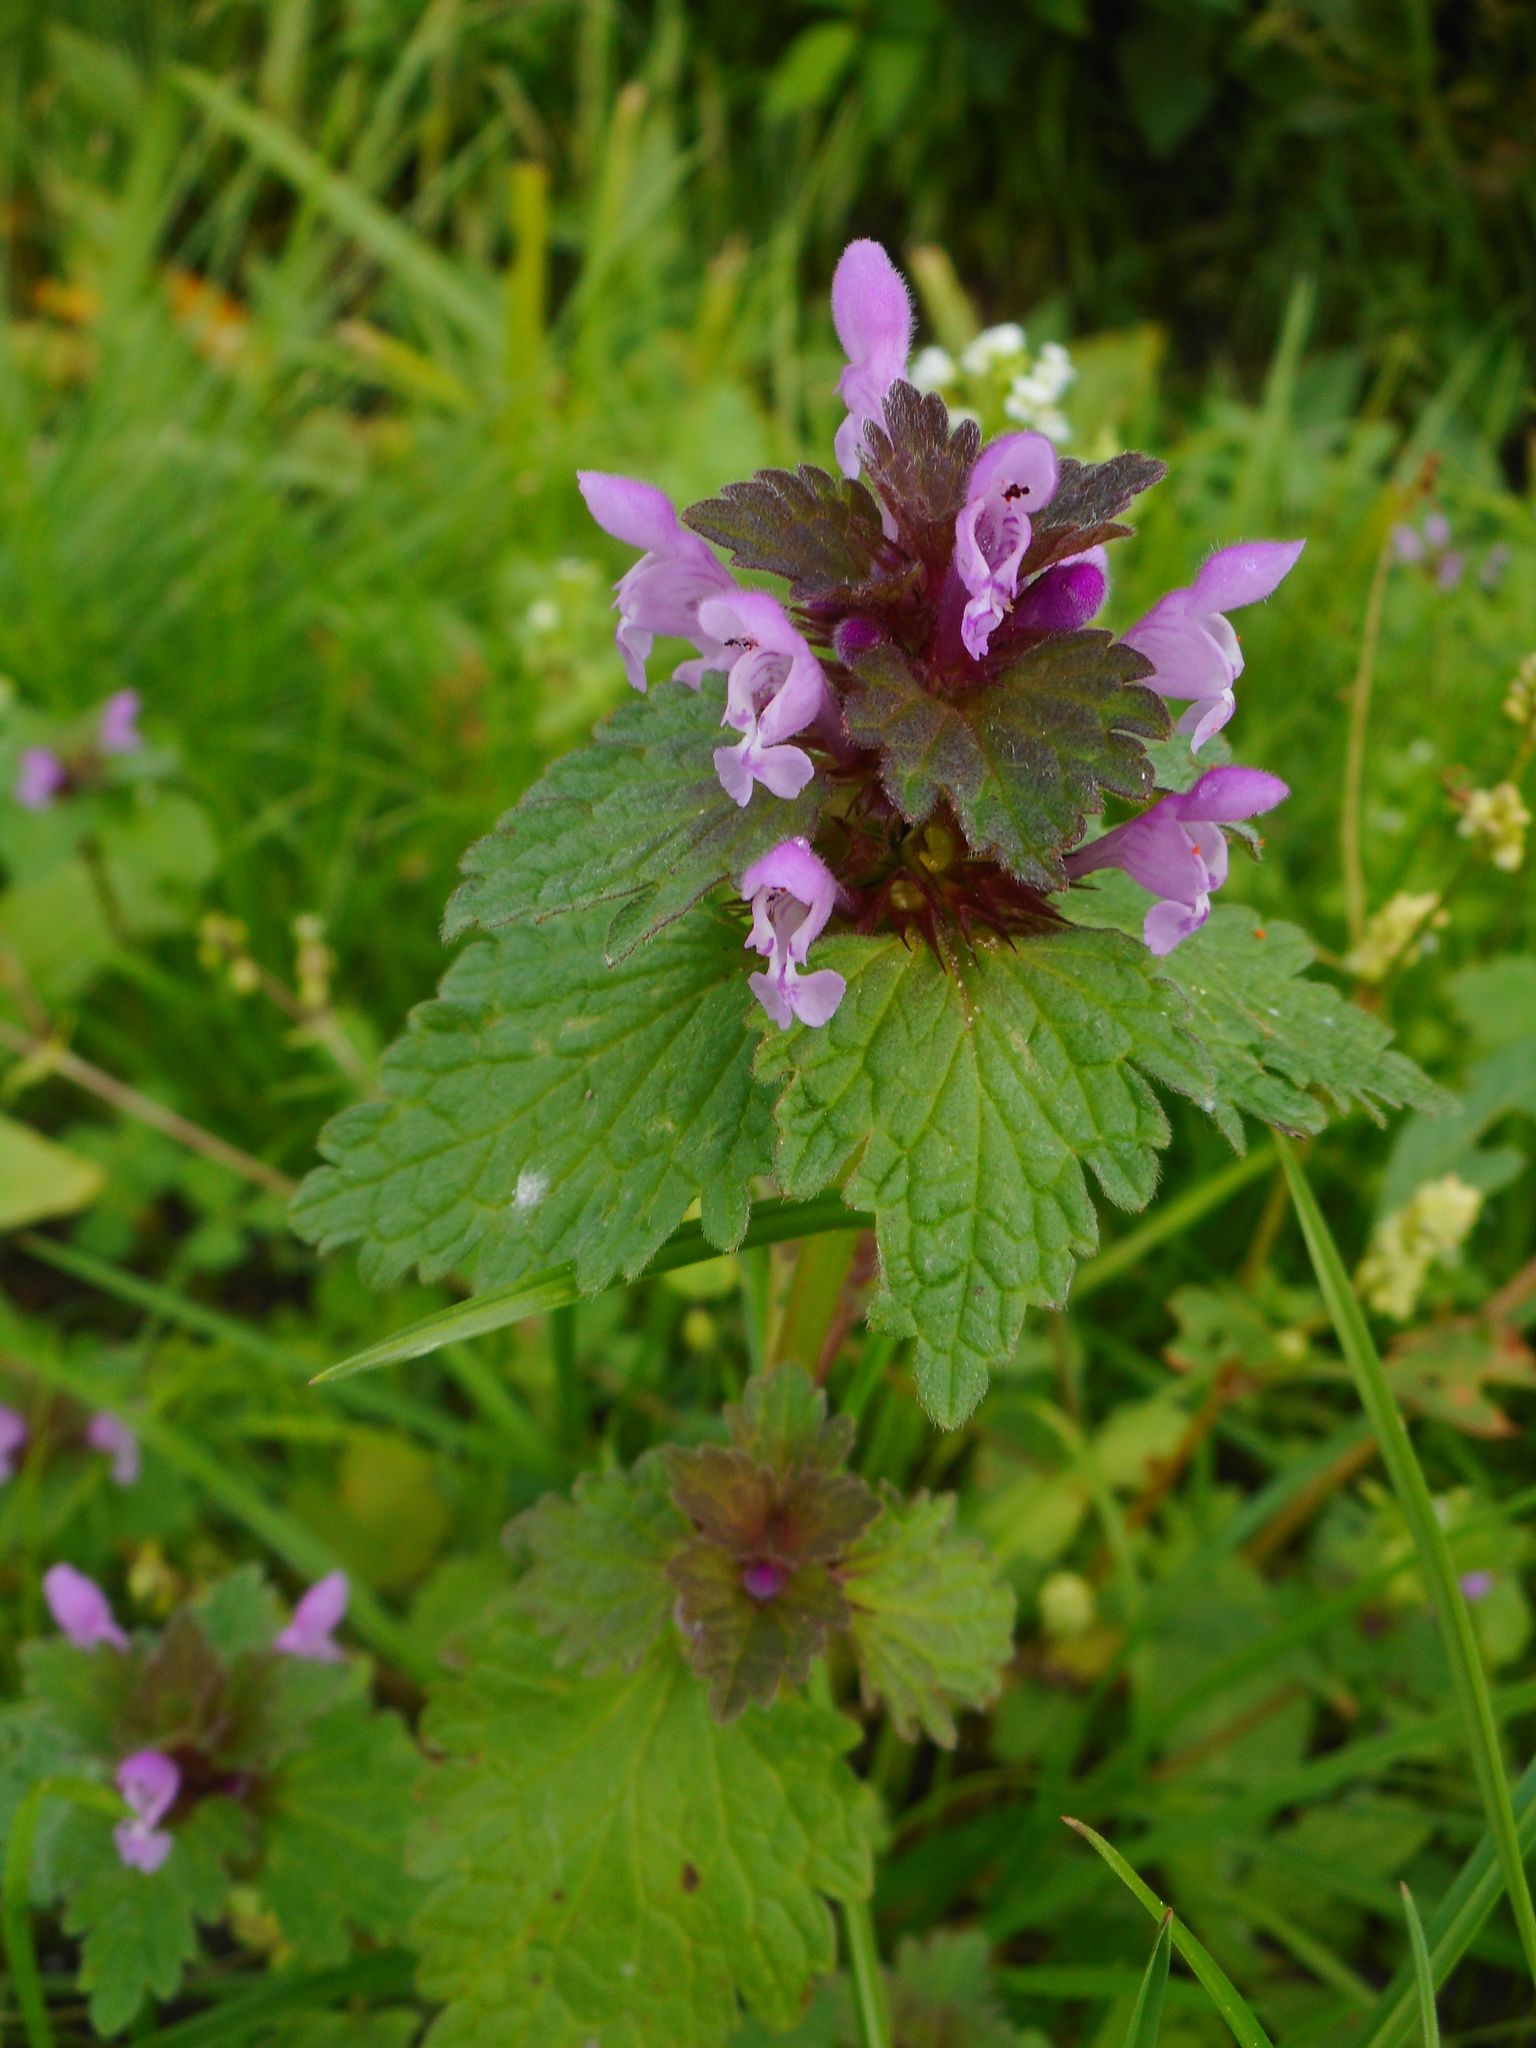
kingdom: Plantae
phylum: Tracheophyta
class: Magnoliopsida
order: Lamiales
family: Lamiaceae
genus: Lamium
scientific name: Lamium purpureum
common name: Red dead-nettle
